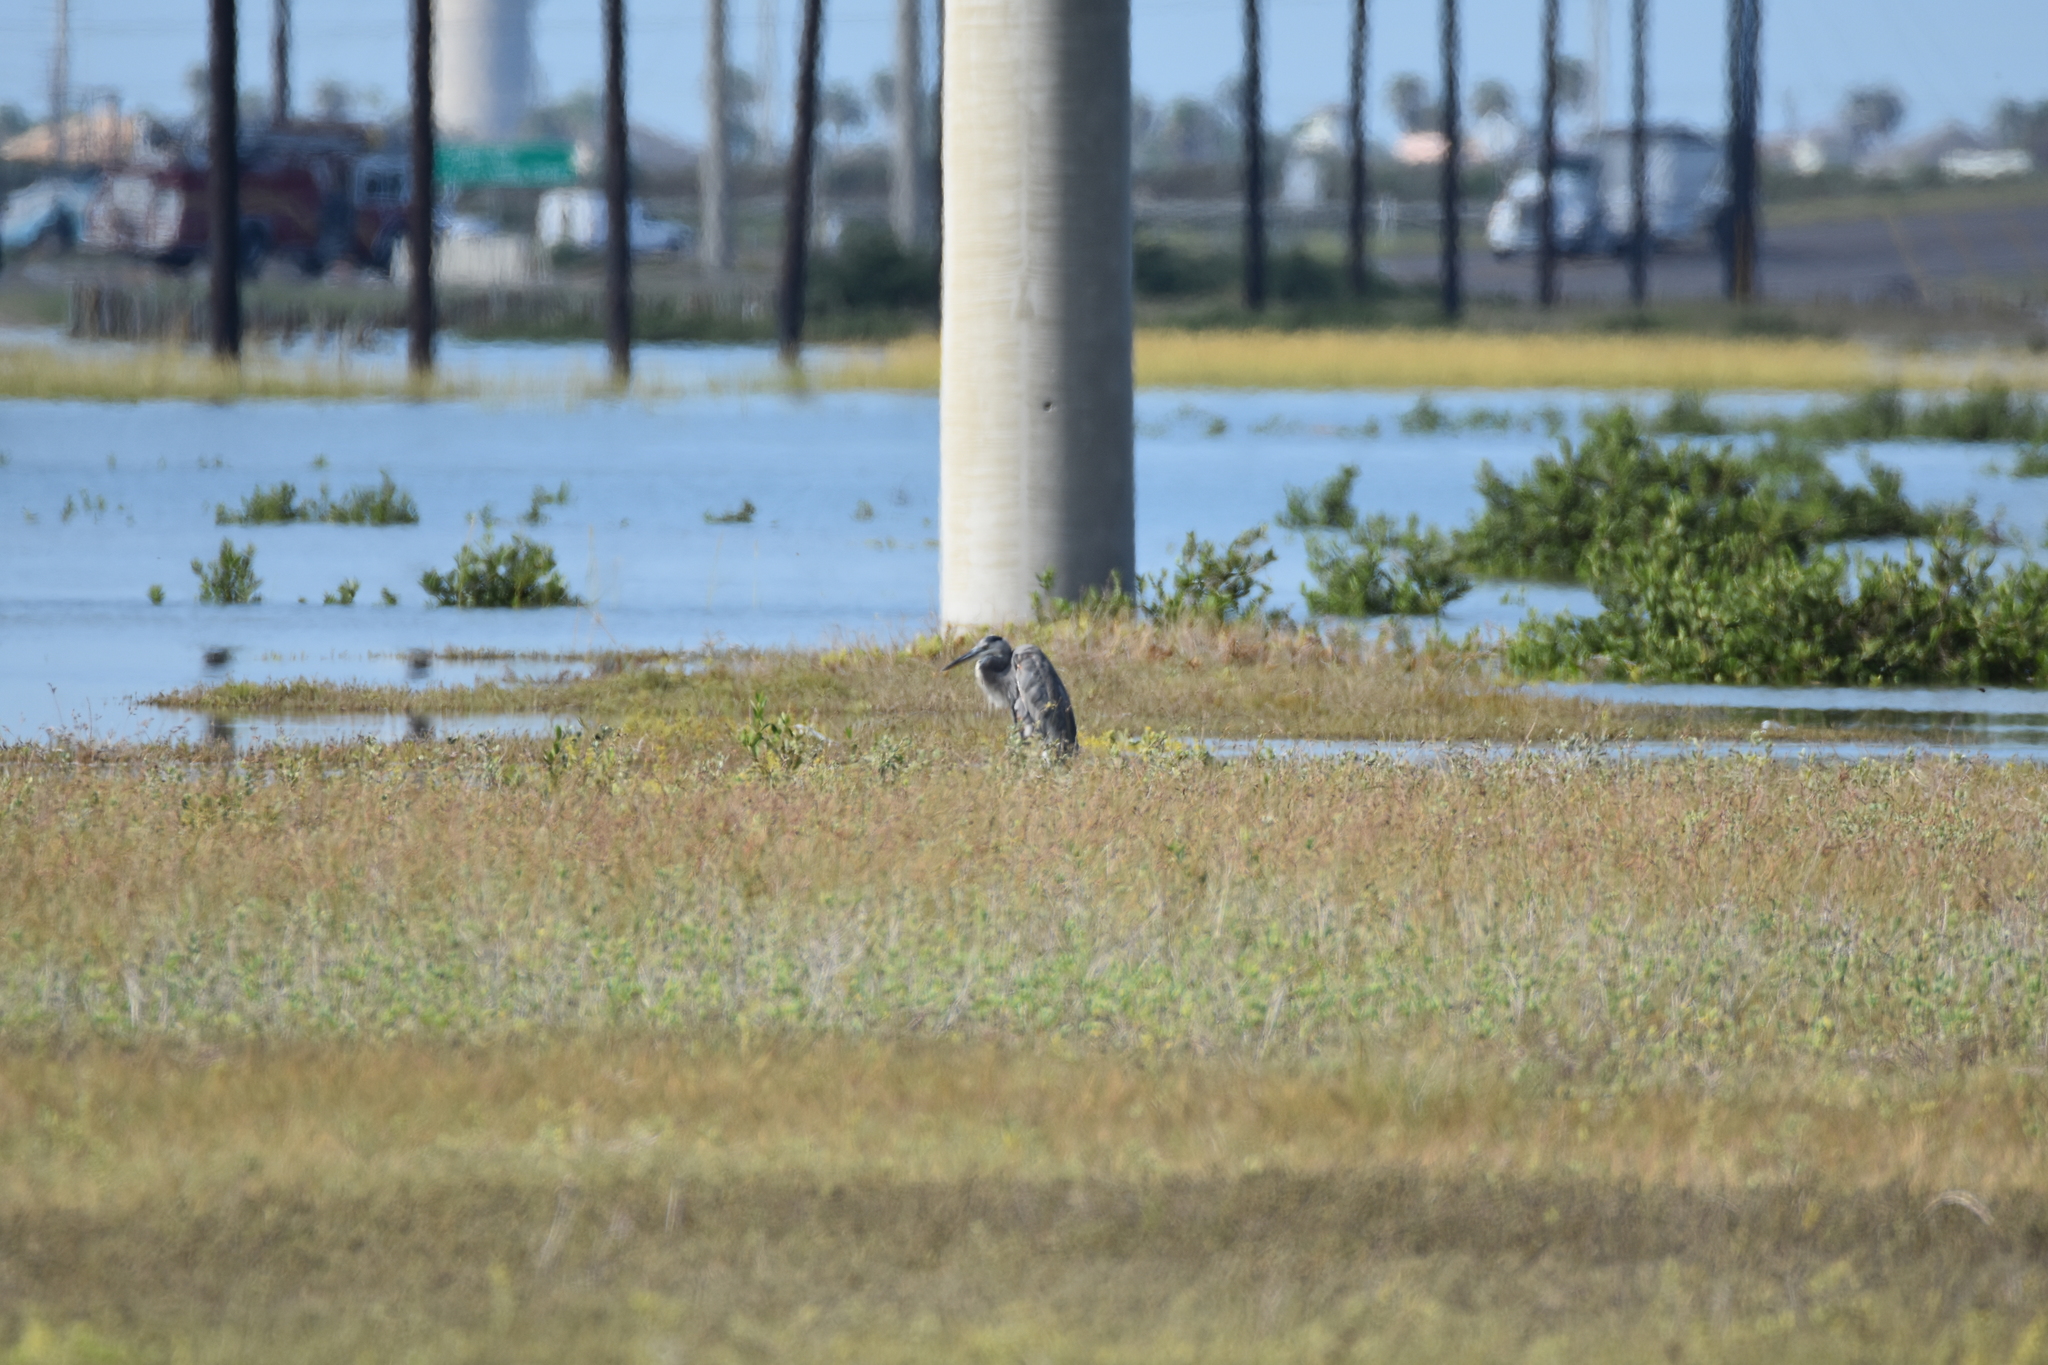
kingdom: Animalia
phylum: Chordata
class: Aves
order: Pelecaniformes
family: Ardeidae
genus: Ardea
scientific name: Ardea herodias
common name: Great blue heron
